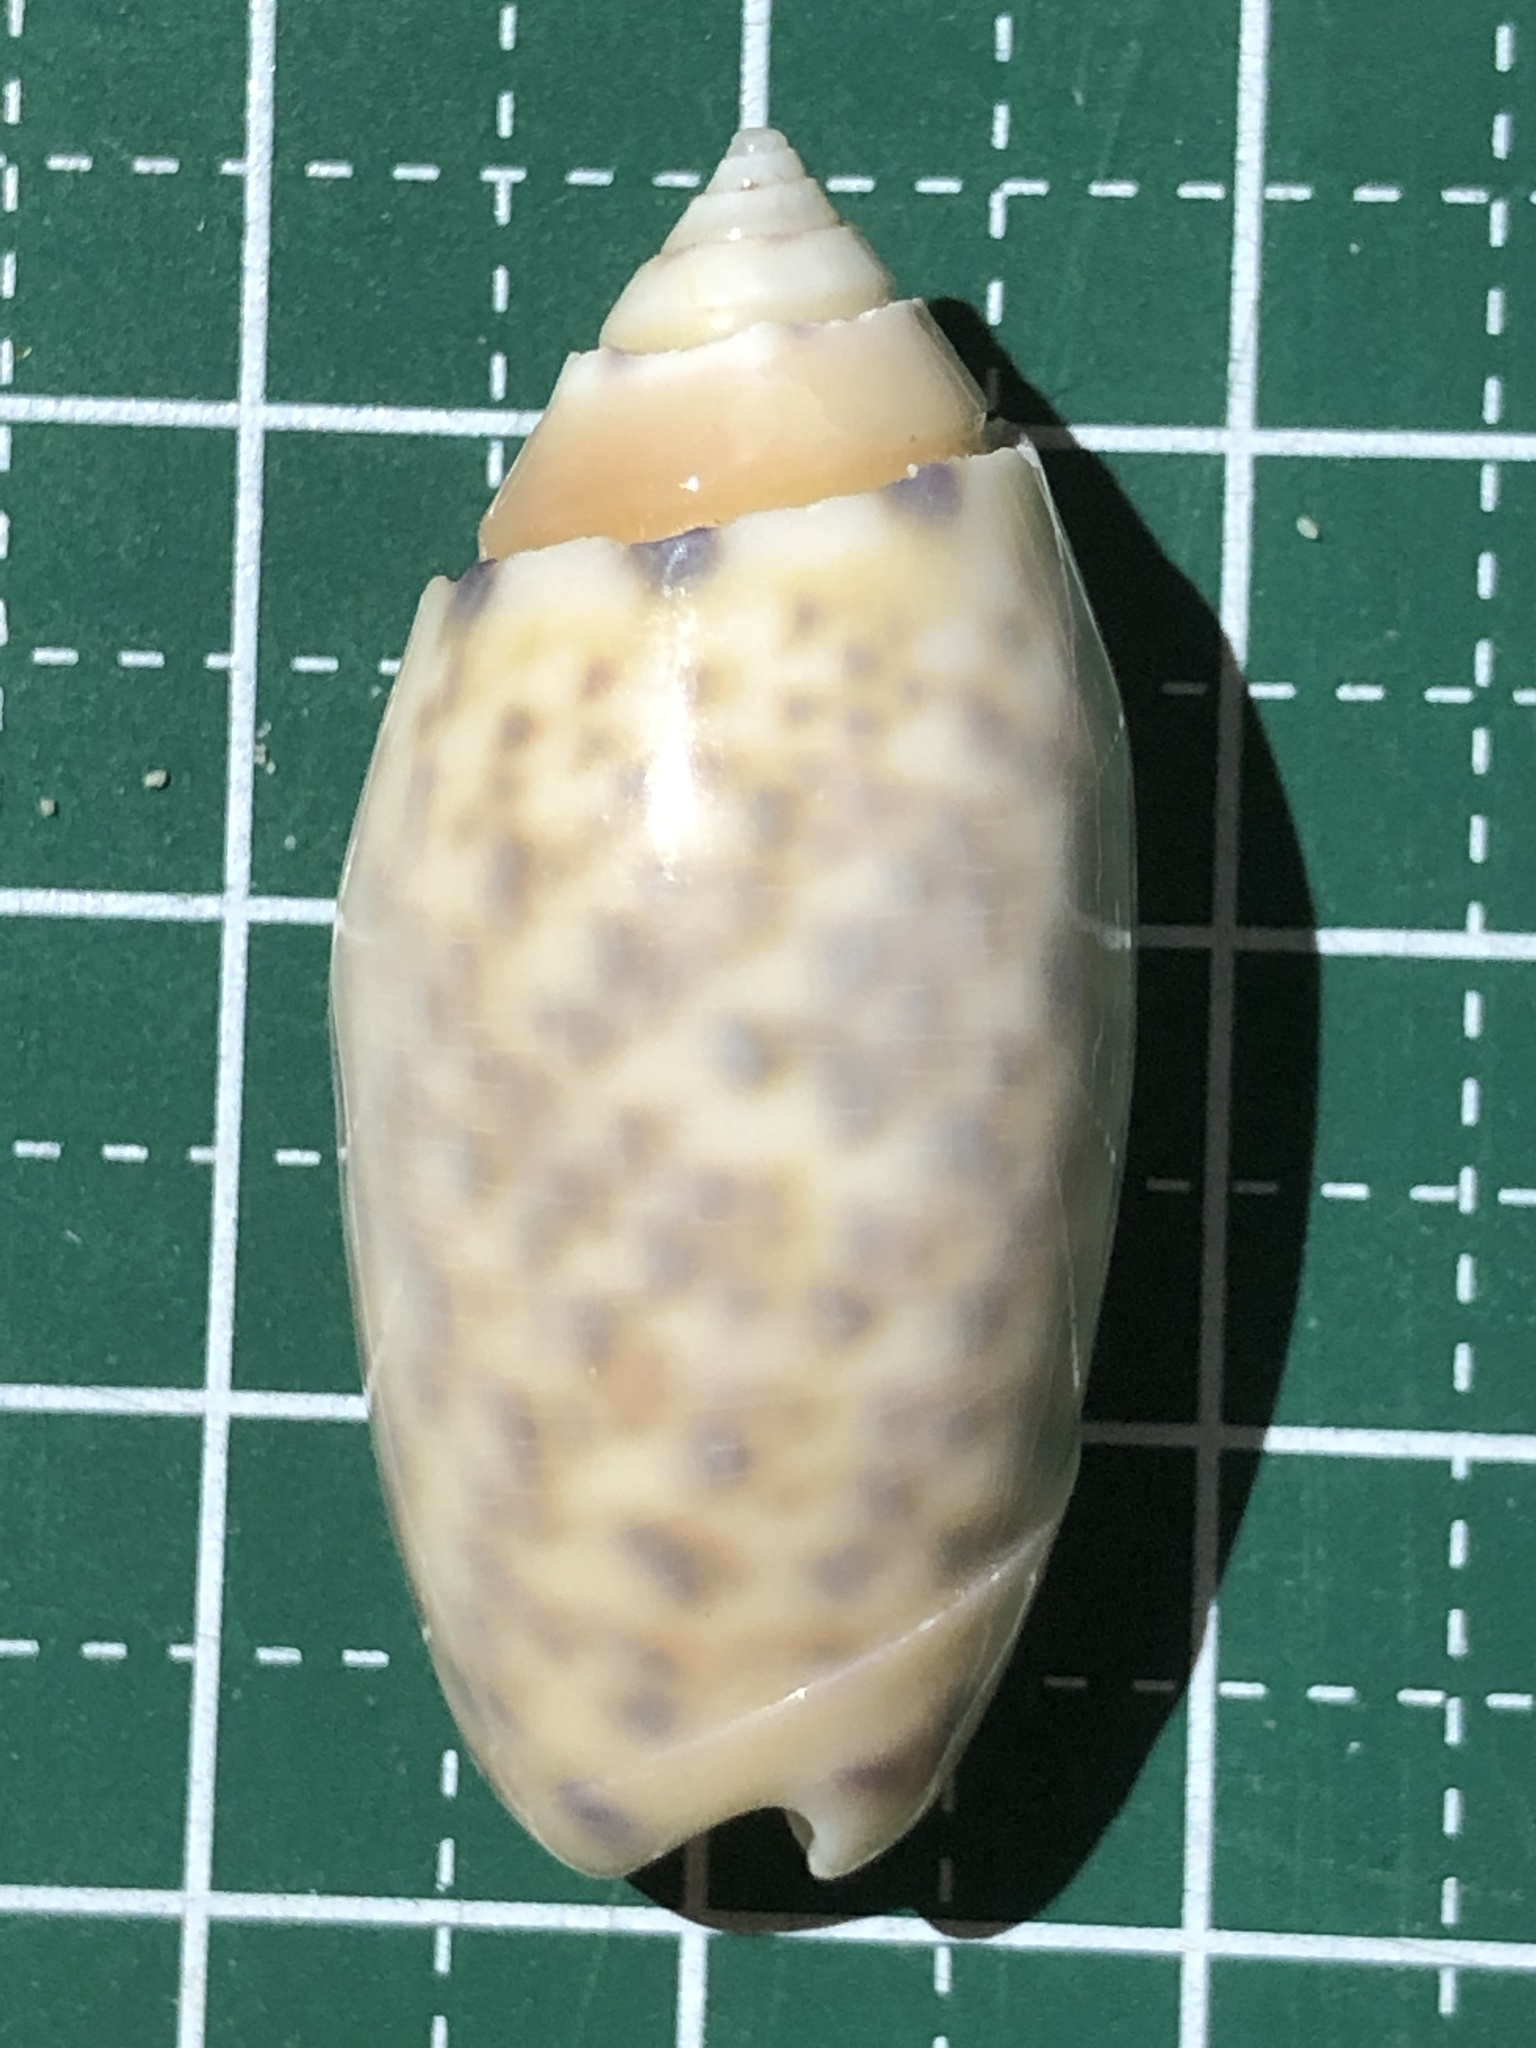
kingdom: Animalia
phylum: Mollusca
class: Gastropoda
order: Neogastropoda
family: Olividae
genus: Oliva
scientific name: Oliva amethystina
